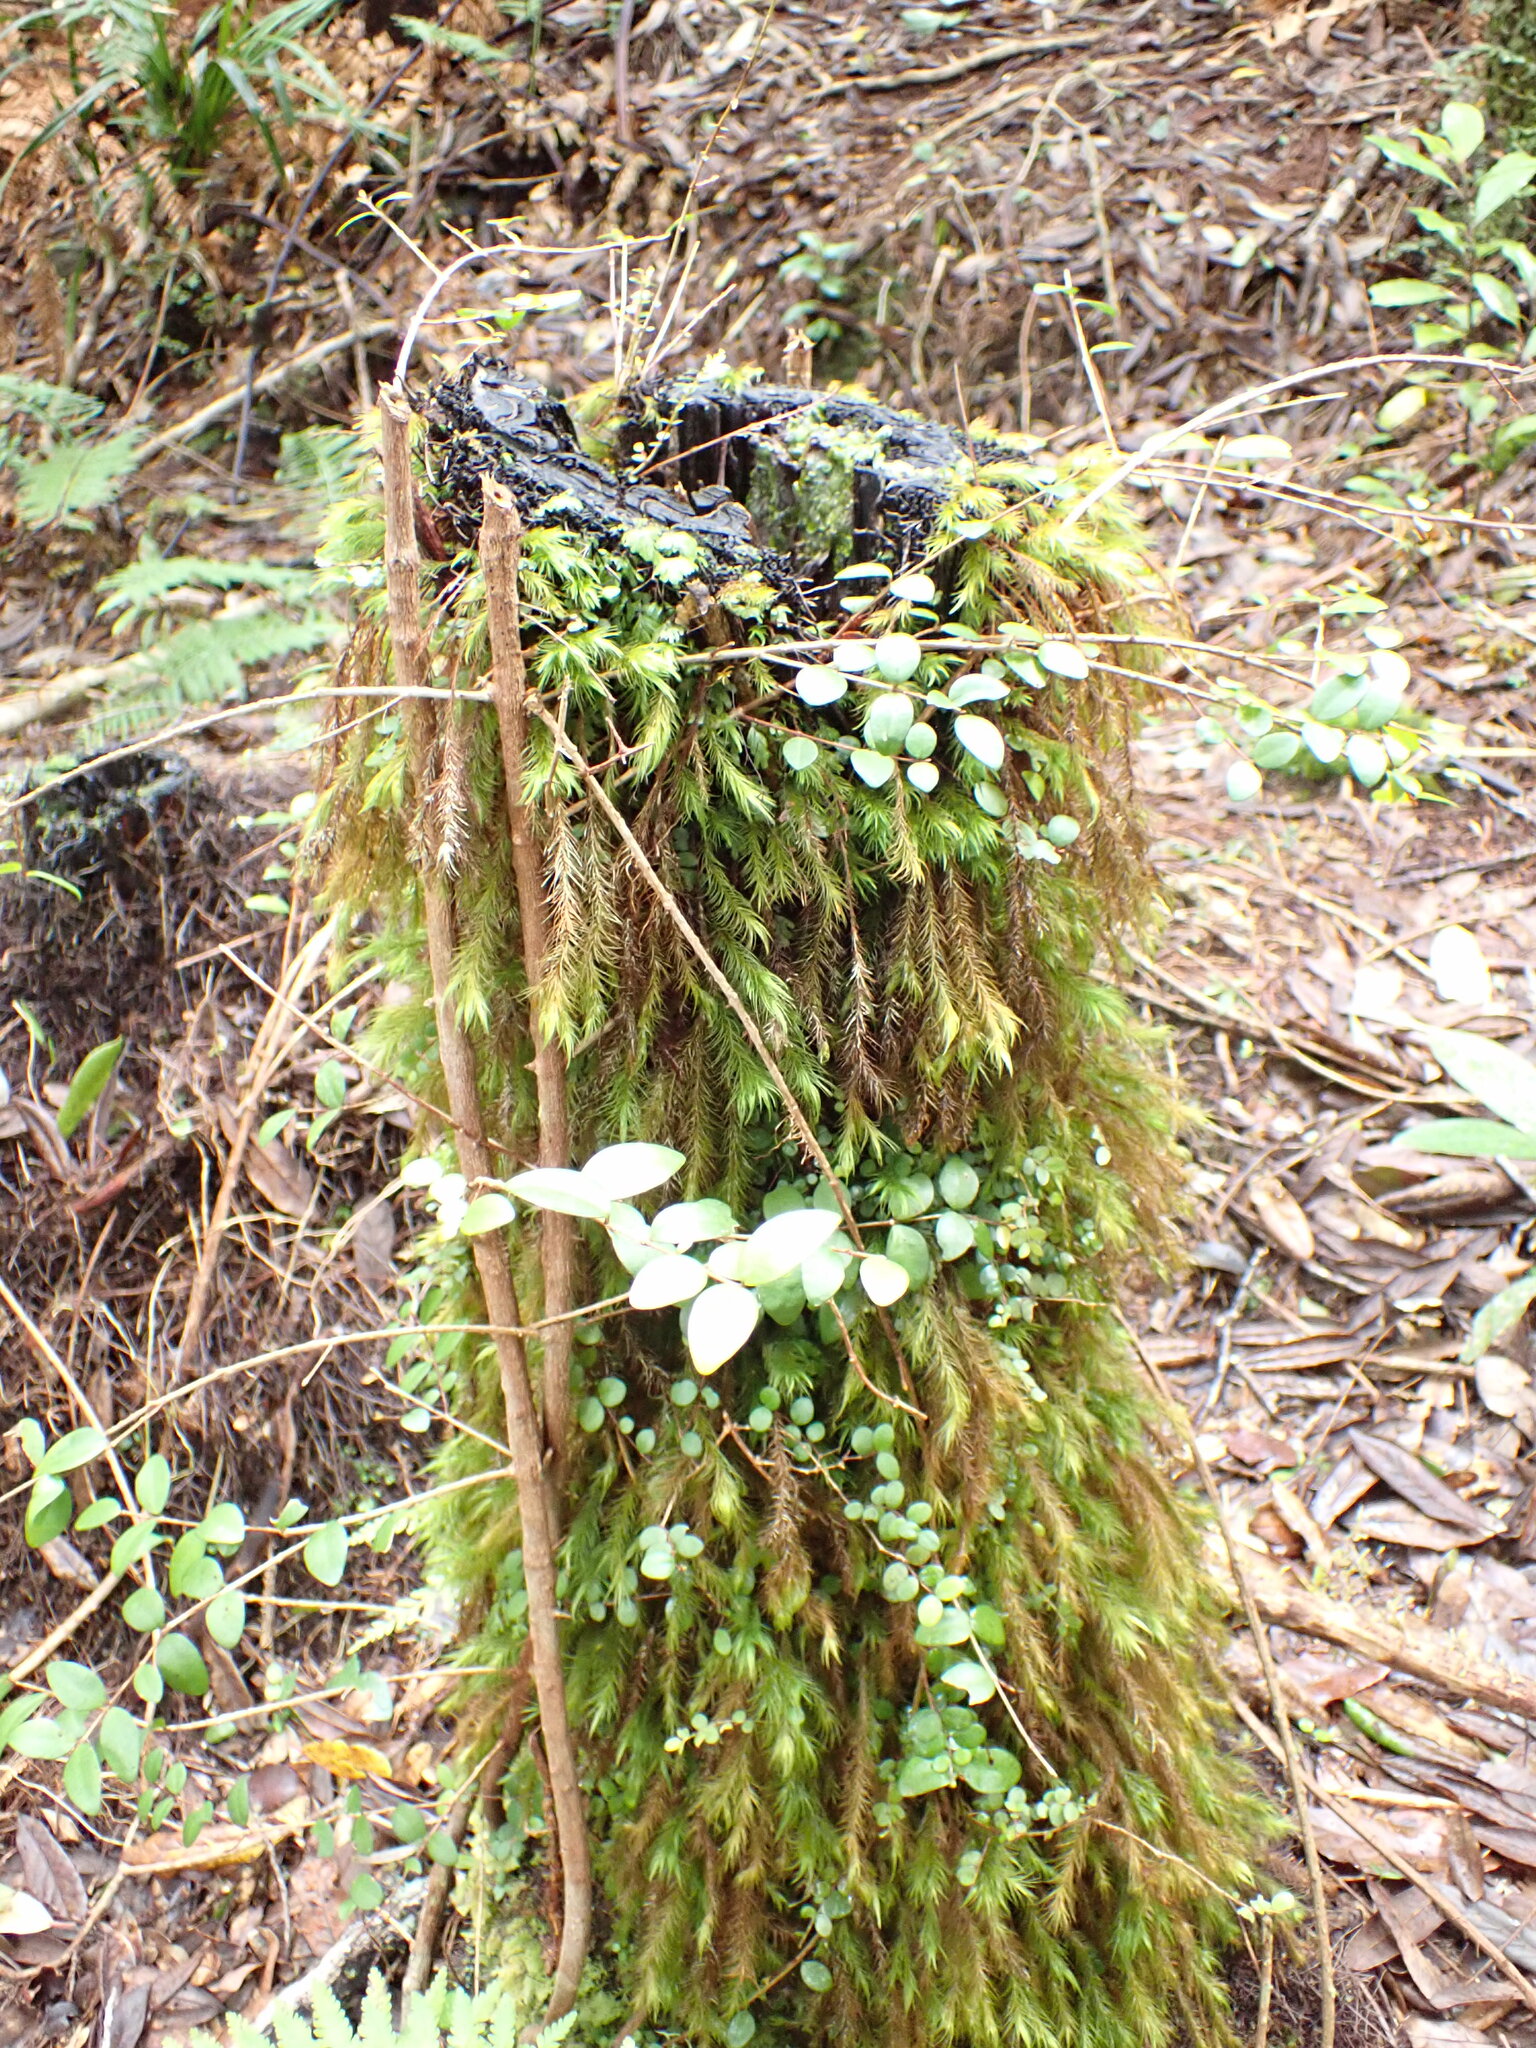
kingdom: Plantae
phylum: Bryophyta
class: Bryopsida
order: Rhizogoniales
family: Calomniaceae
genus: Cryptopodium
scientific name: Cryptopodium bartramioides
